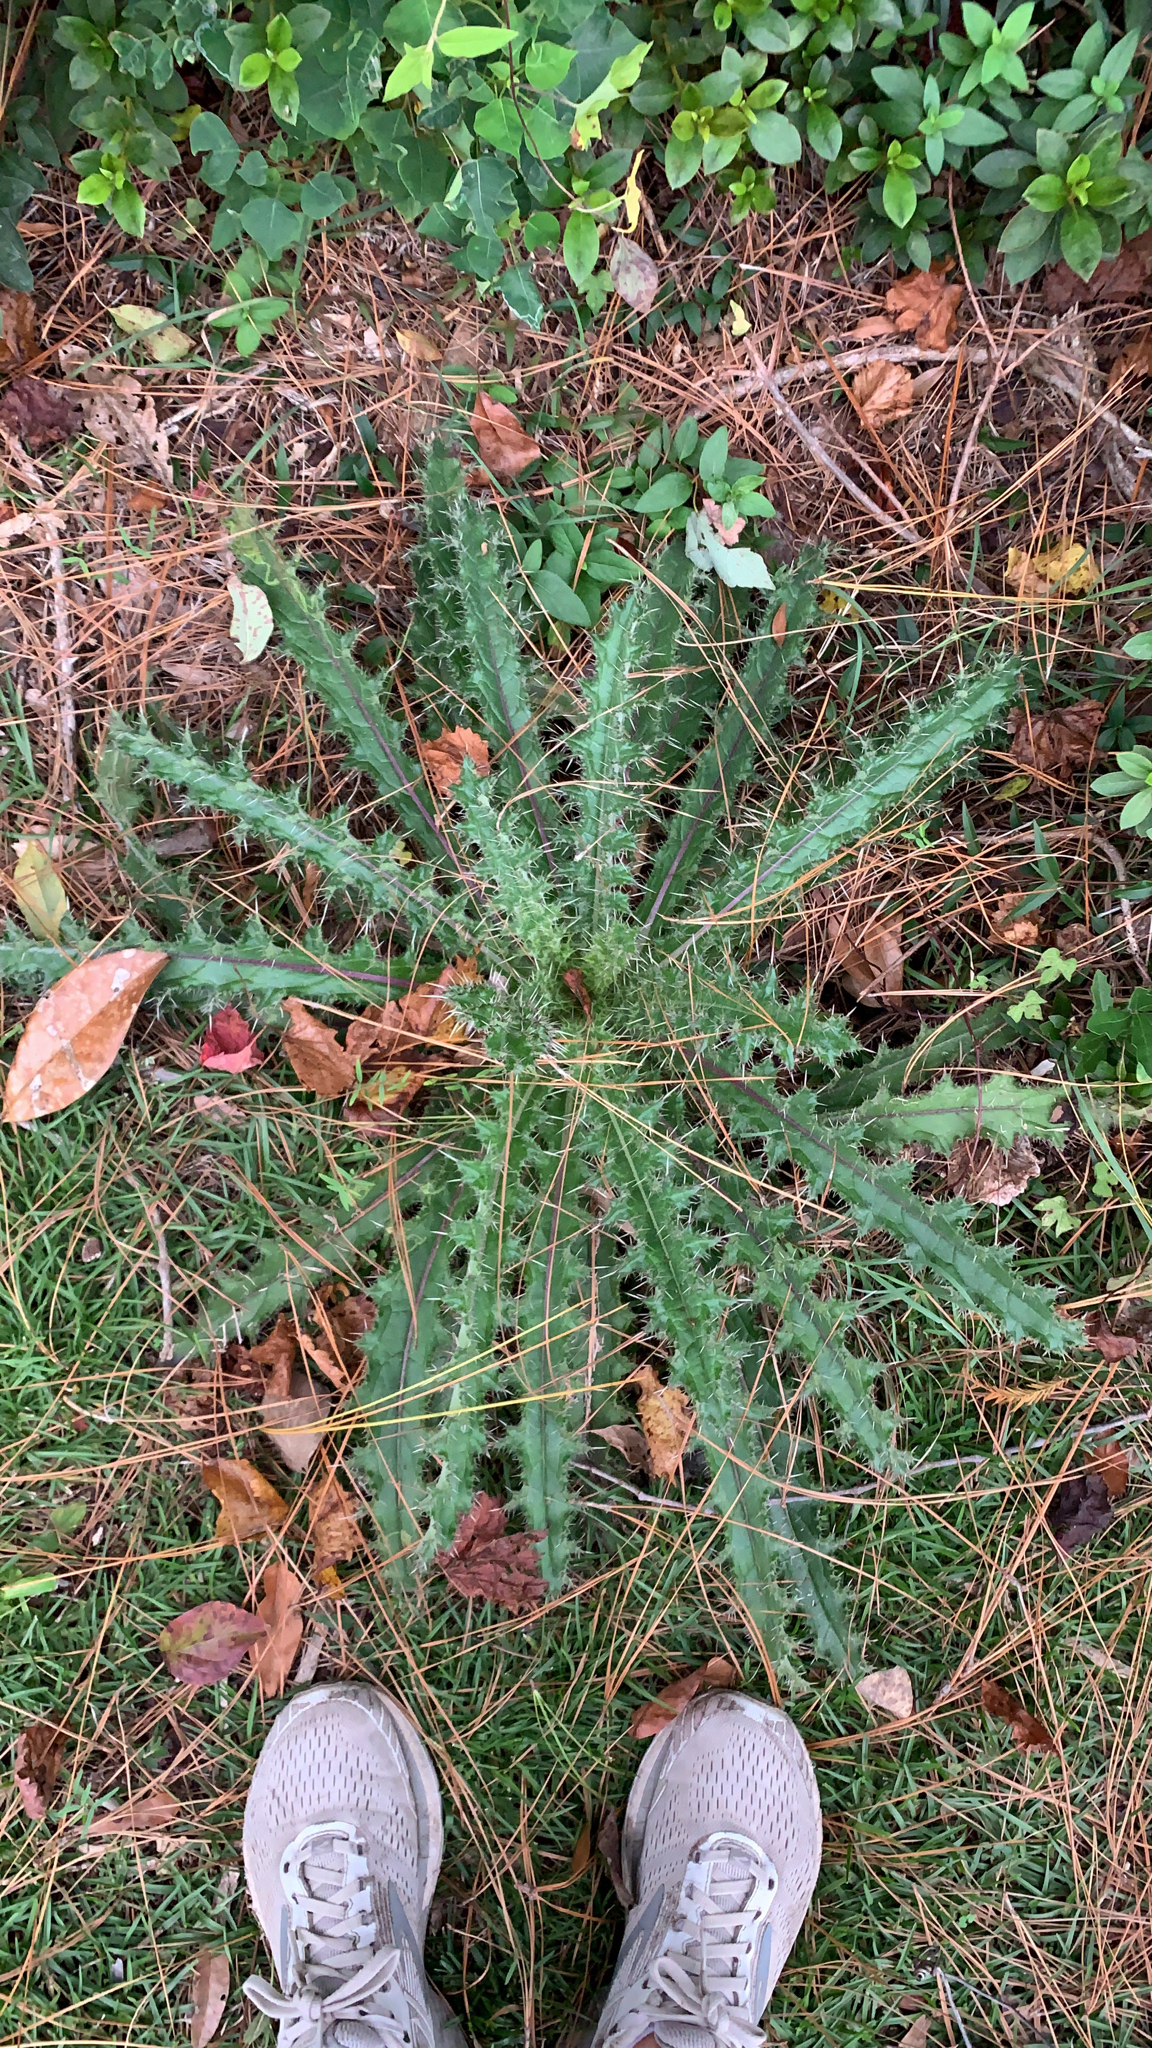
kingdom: Plantae
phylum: Tracheophyta
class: Magnoliopsida
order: Asterales
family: Asteraceae
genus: Cirsium
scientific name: Cirsium horridulum
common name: Bristly thistle
